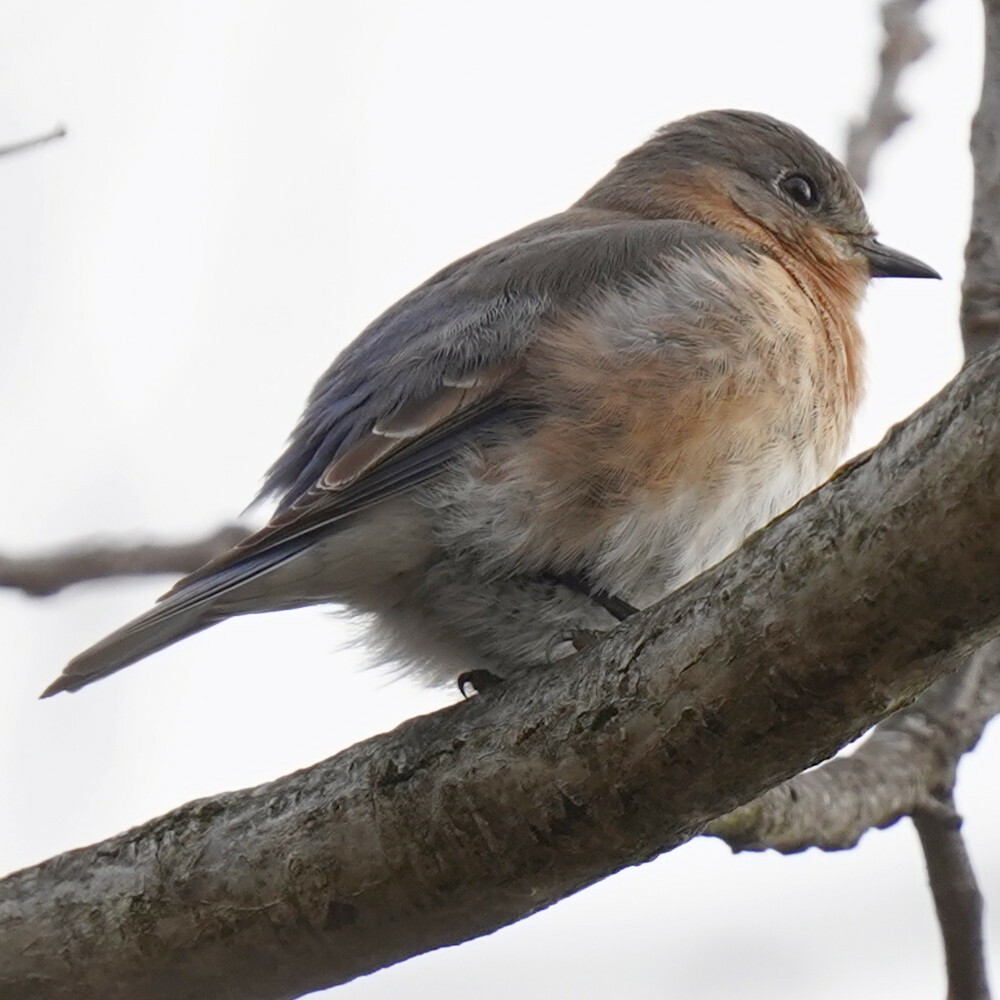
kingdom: Animalia
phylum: Chordata
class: Aves
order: Passeriformes
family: Turdidae
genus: Sialia
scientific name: Sialia sialis
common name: Eastern bluebird
